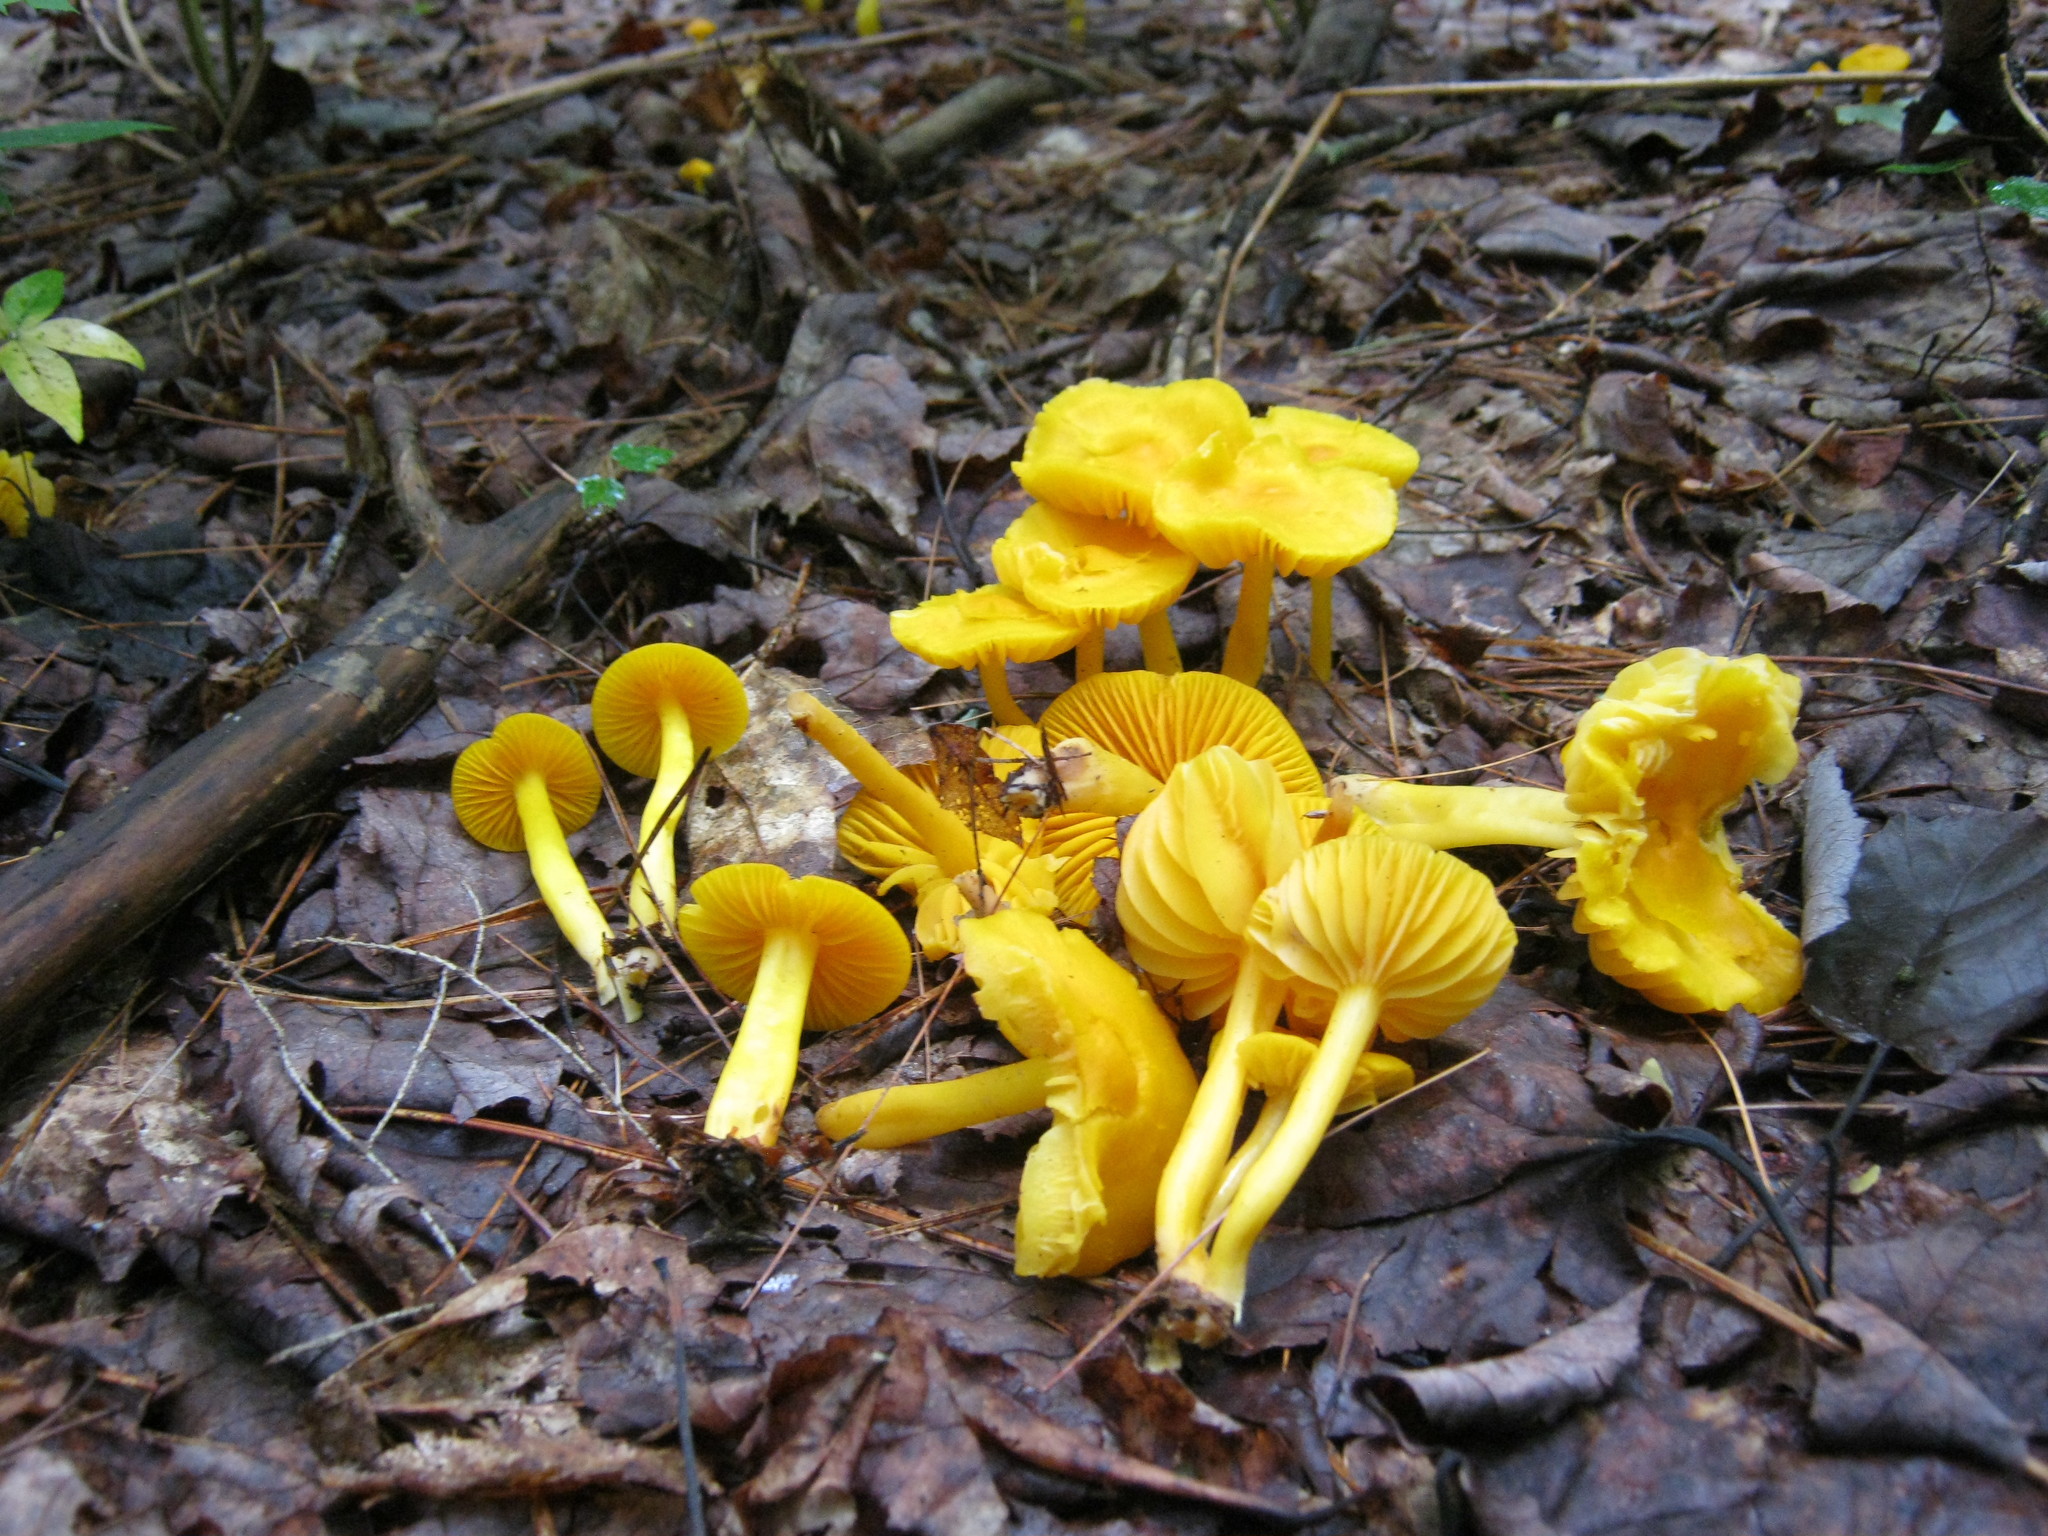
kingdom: Fungi
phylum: Basidiomycota
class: Agaricomycetes
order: Agaricales
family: Hygrophoraceae
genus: Humidicutis
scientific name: Humidicutis marginata
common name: Orange gilled waxcap
